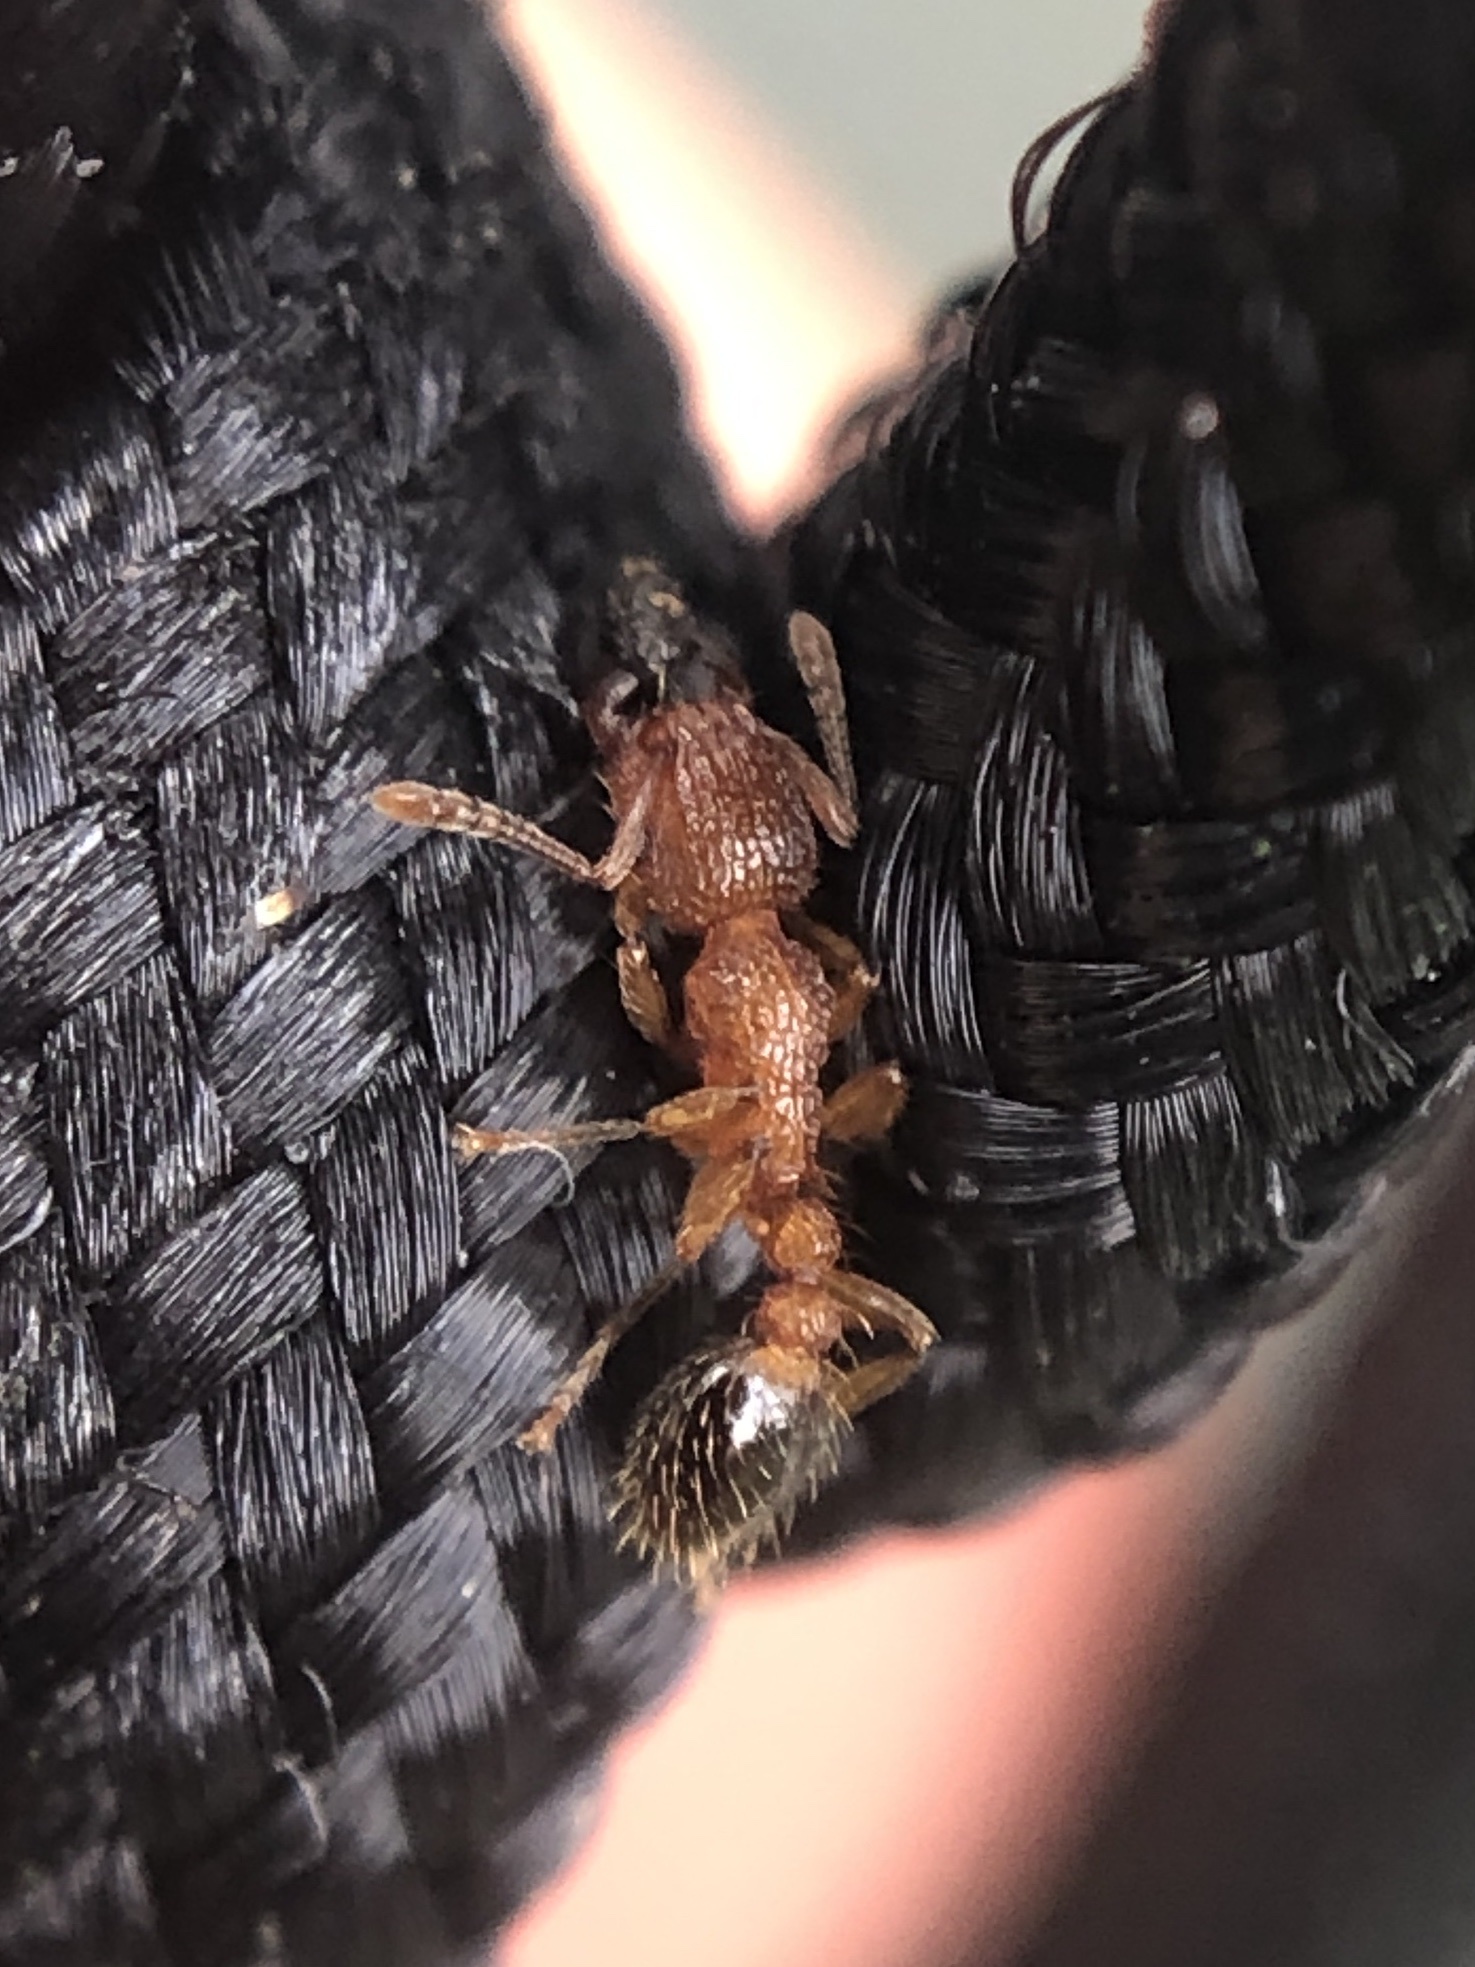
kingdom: Animalia
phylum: Arthropoda
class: Insecta
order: Hymenoptera
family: Formicidae
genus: Tetramorium
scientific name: Tetramorium bicarinatum
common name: Guinea ant
